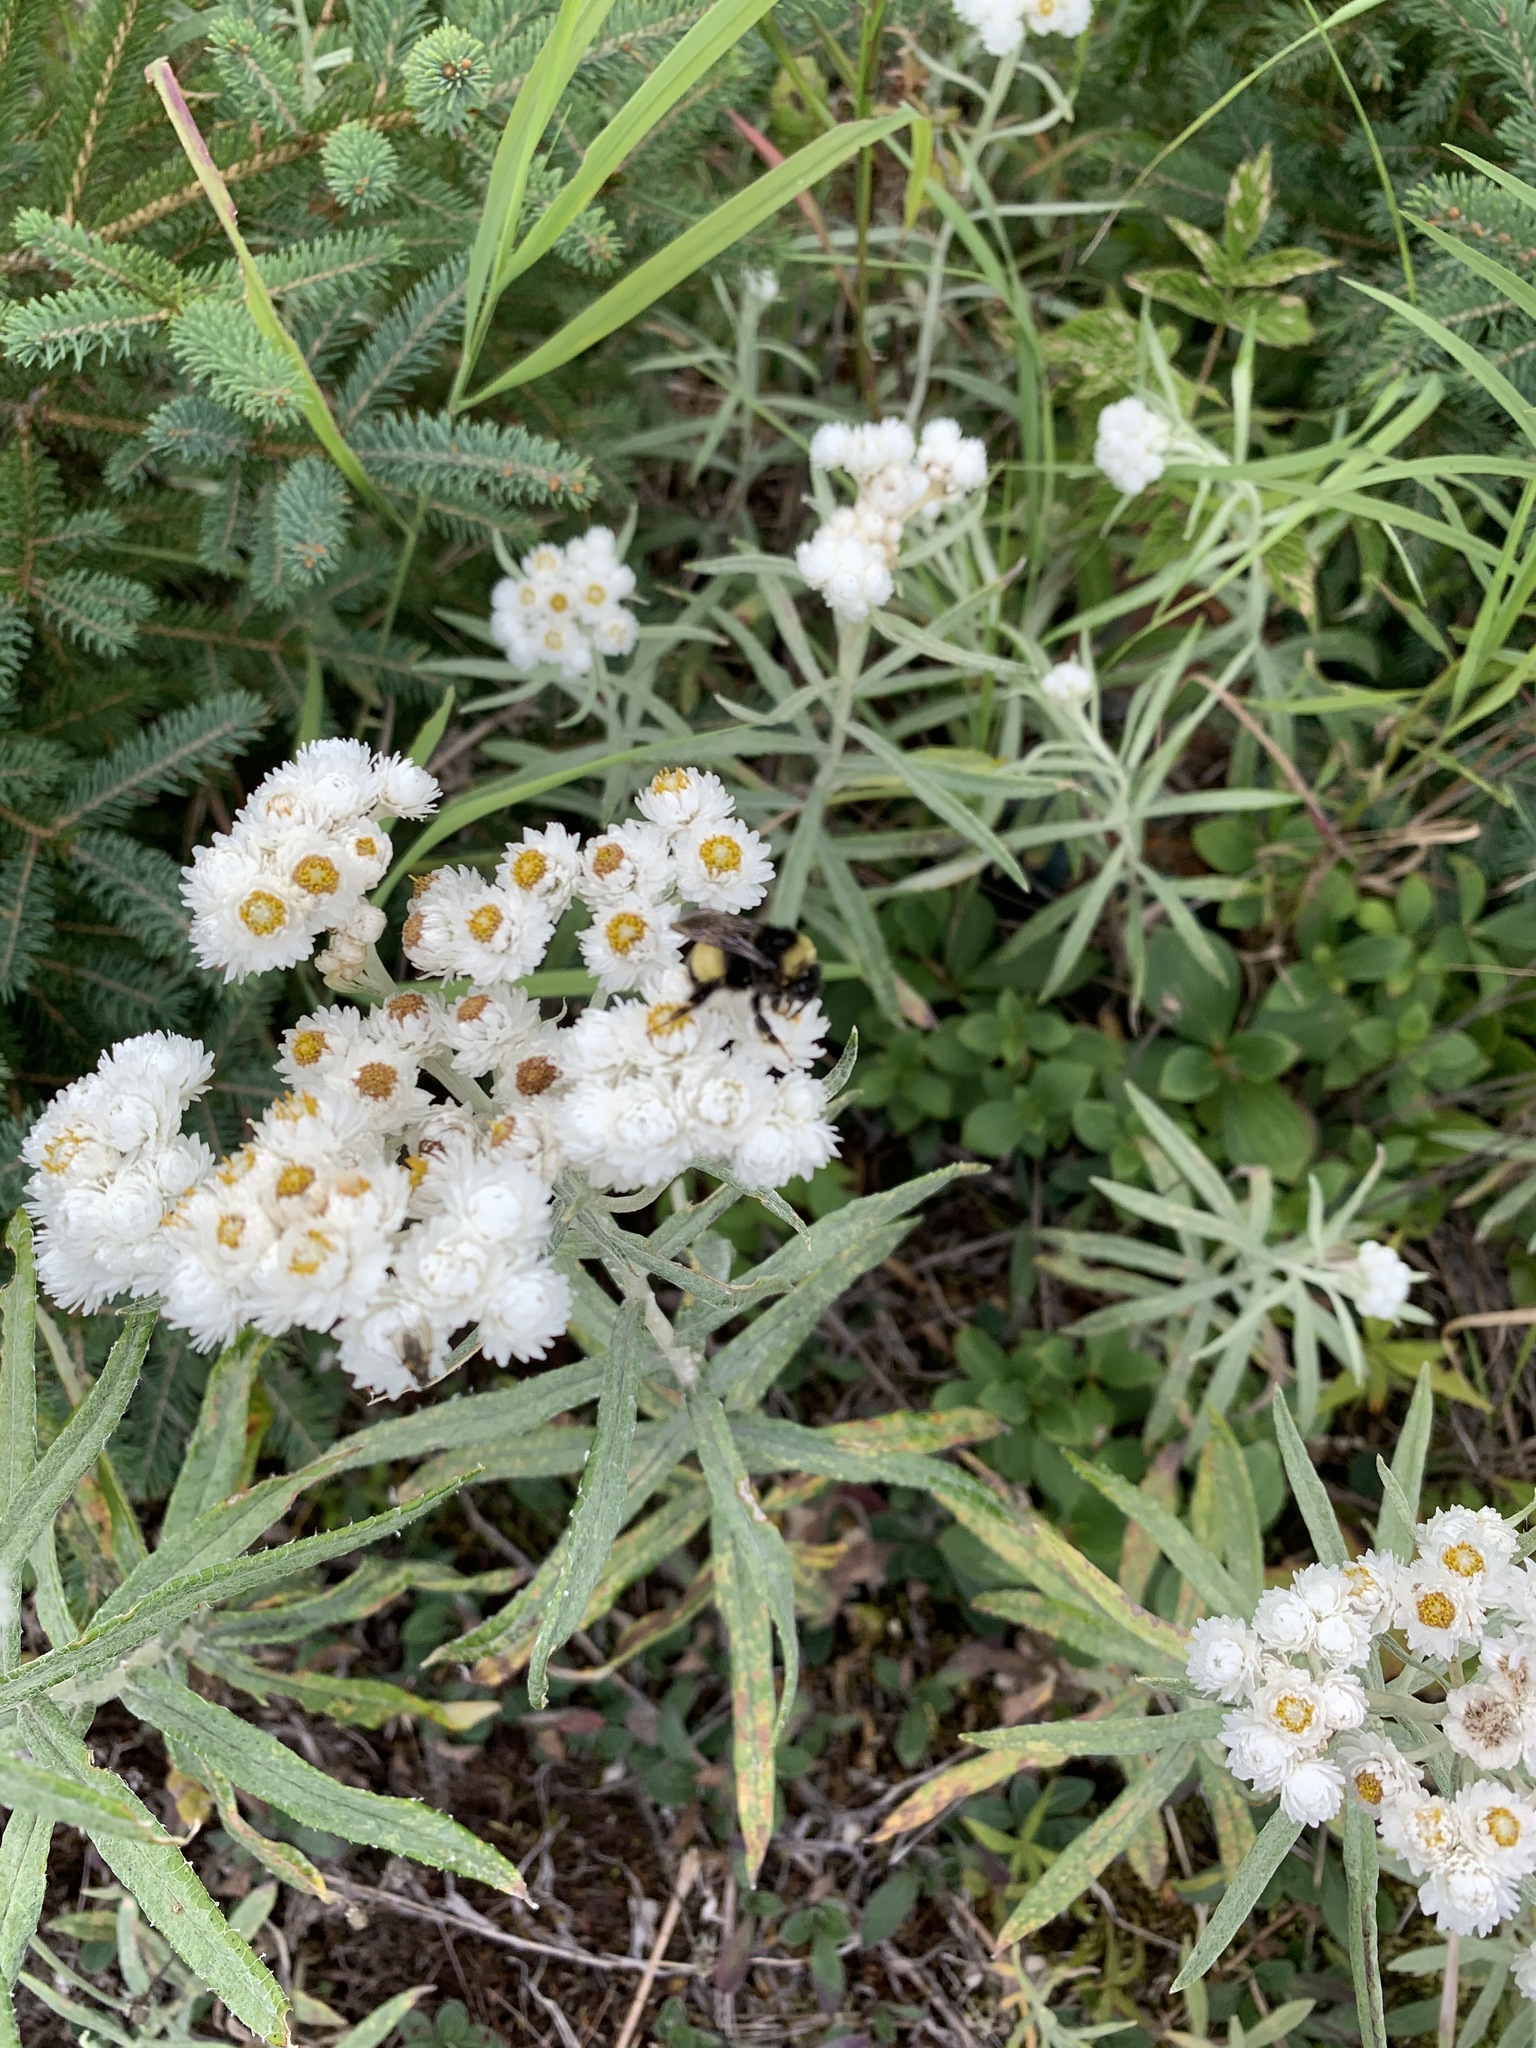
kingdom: Plantae
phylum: Tracheophyta
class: Magnoliopsida
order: Asterales
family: Asteraceae
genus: Anaphalis
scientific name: Anaphalis margaritacea
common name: Pearly everlasting
